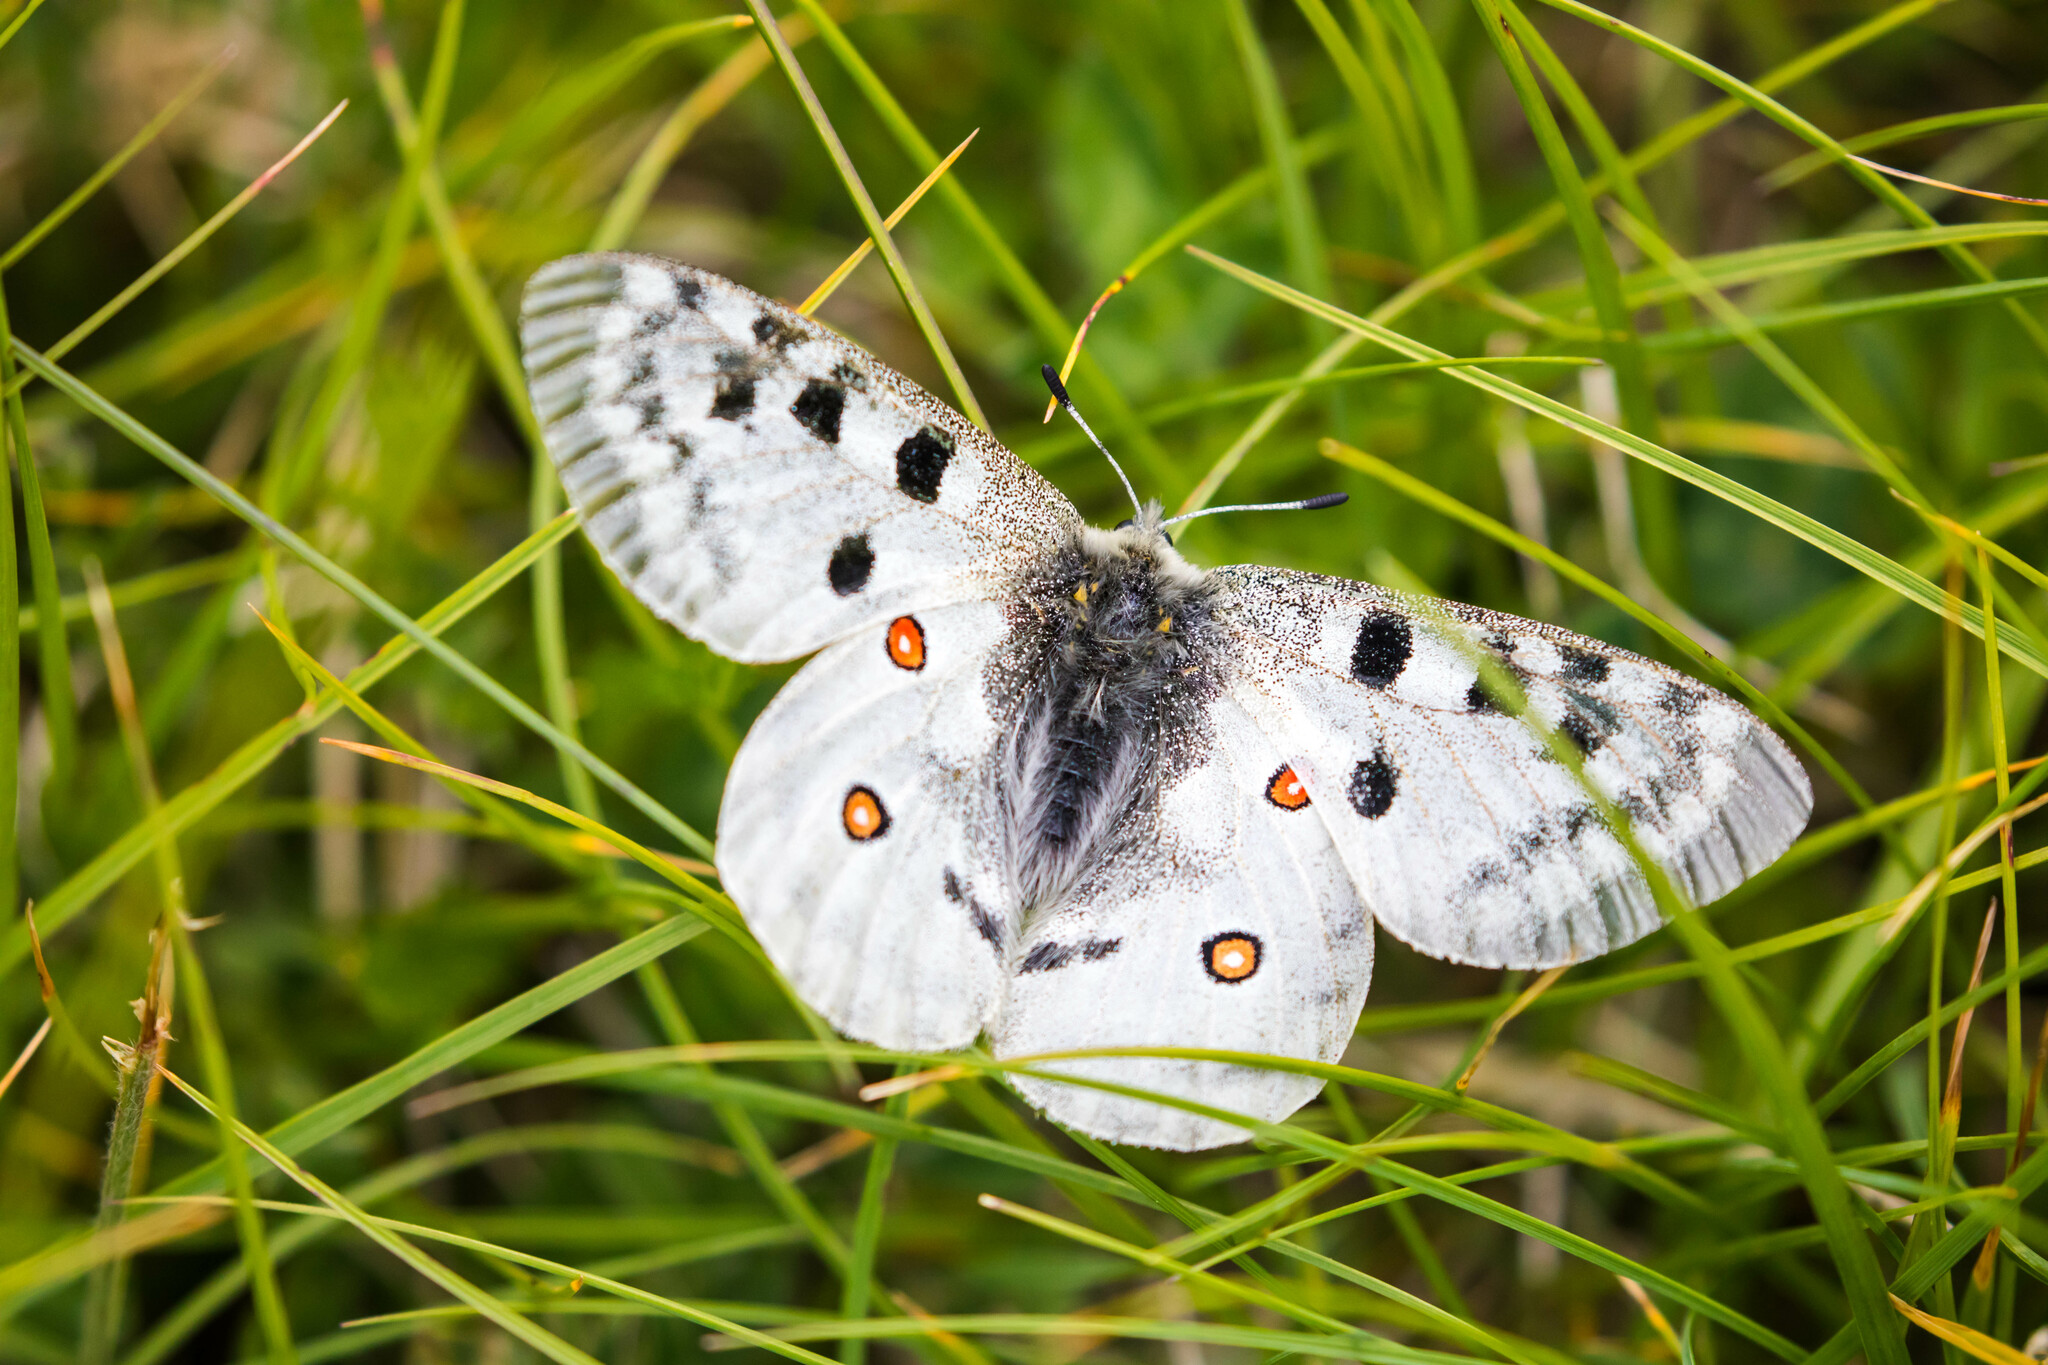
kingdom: Animalia
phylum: Arthropoda
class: Insecta
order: Lepidoptera
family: Papilionidae
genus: Parnassius
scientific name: Parnassius apollo
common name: Apollo
